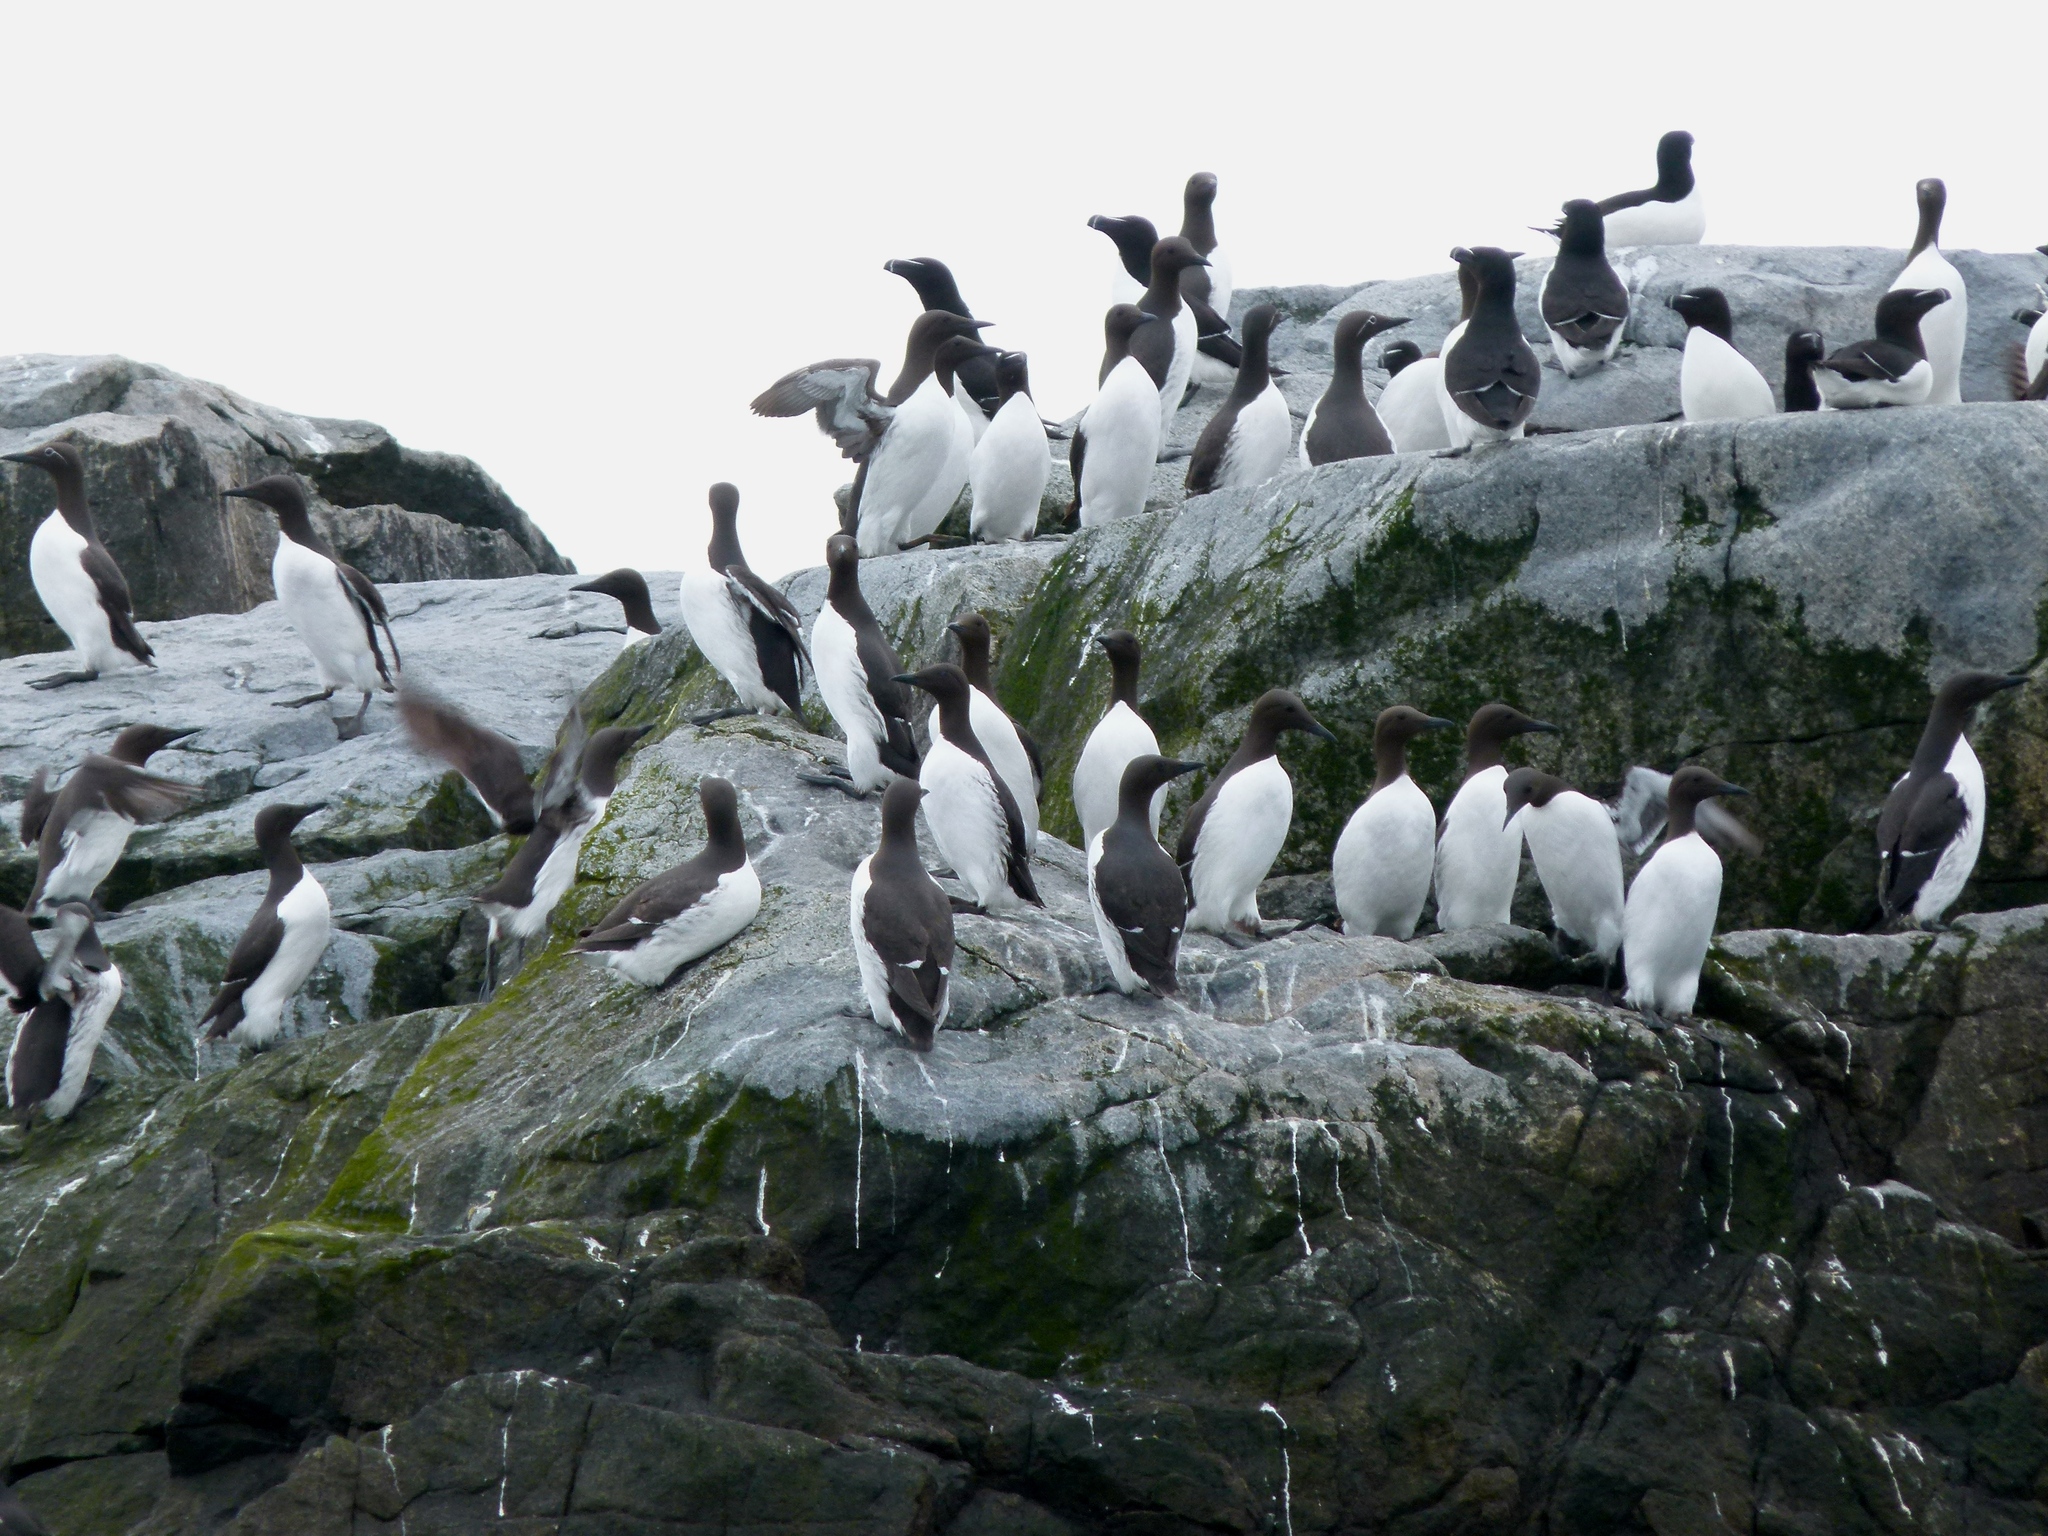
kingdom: Animalia
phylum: Chordata
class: Aves
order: Charadriiformes
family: Alcidae
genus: Uria
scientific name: Uria aalge
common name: Common murre
